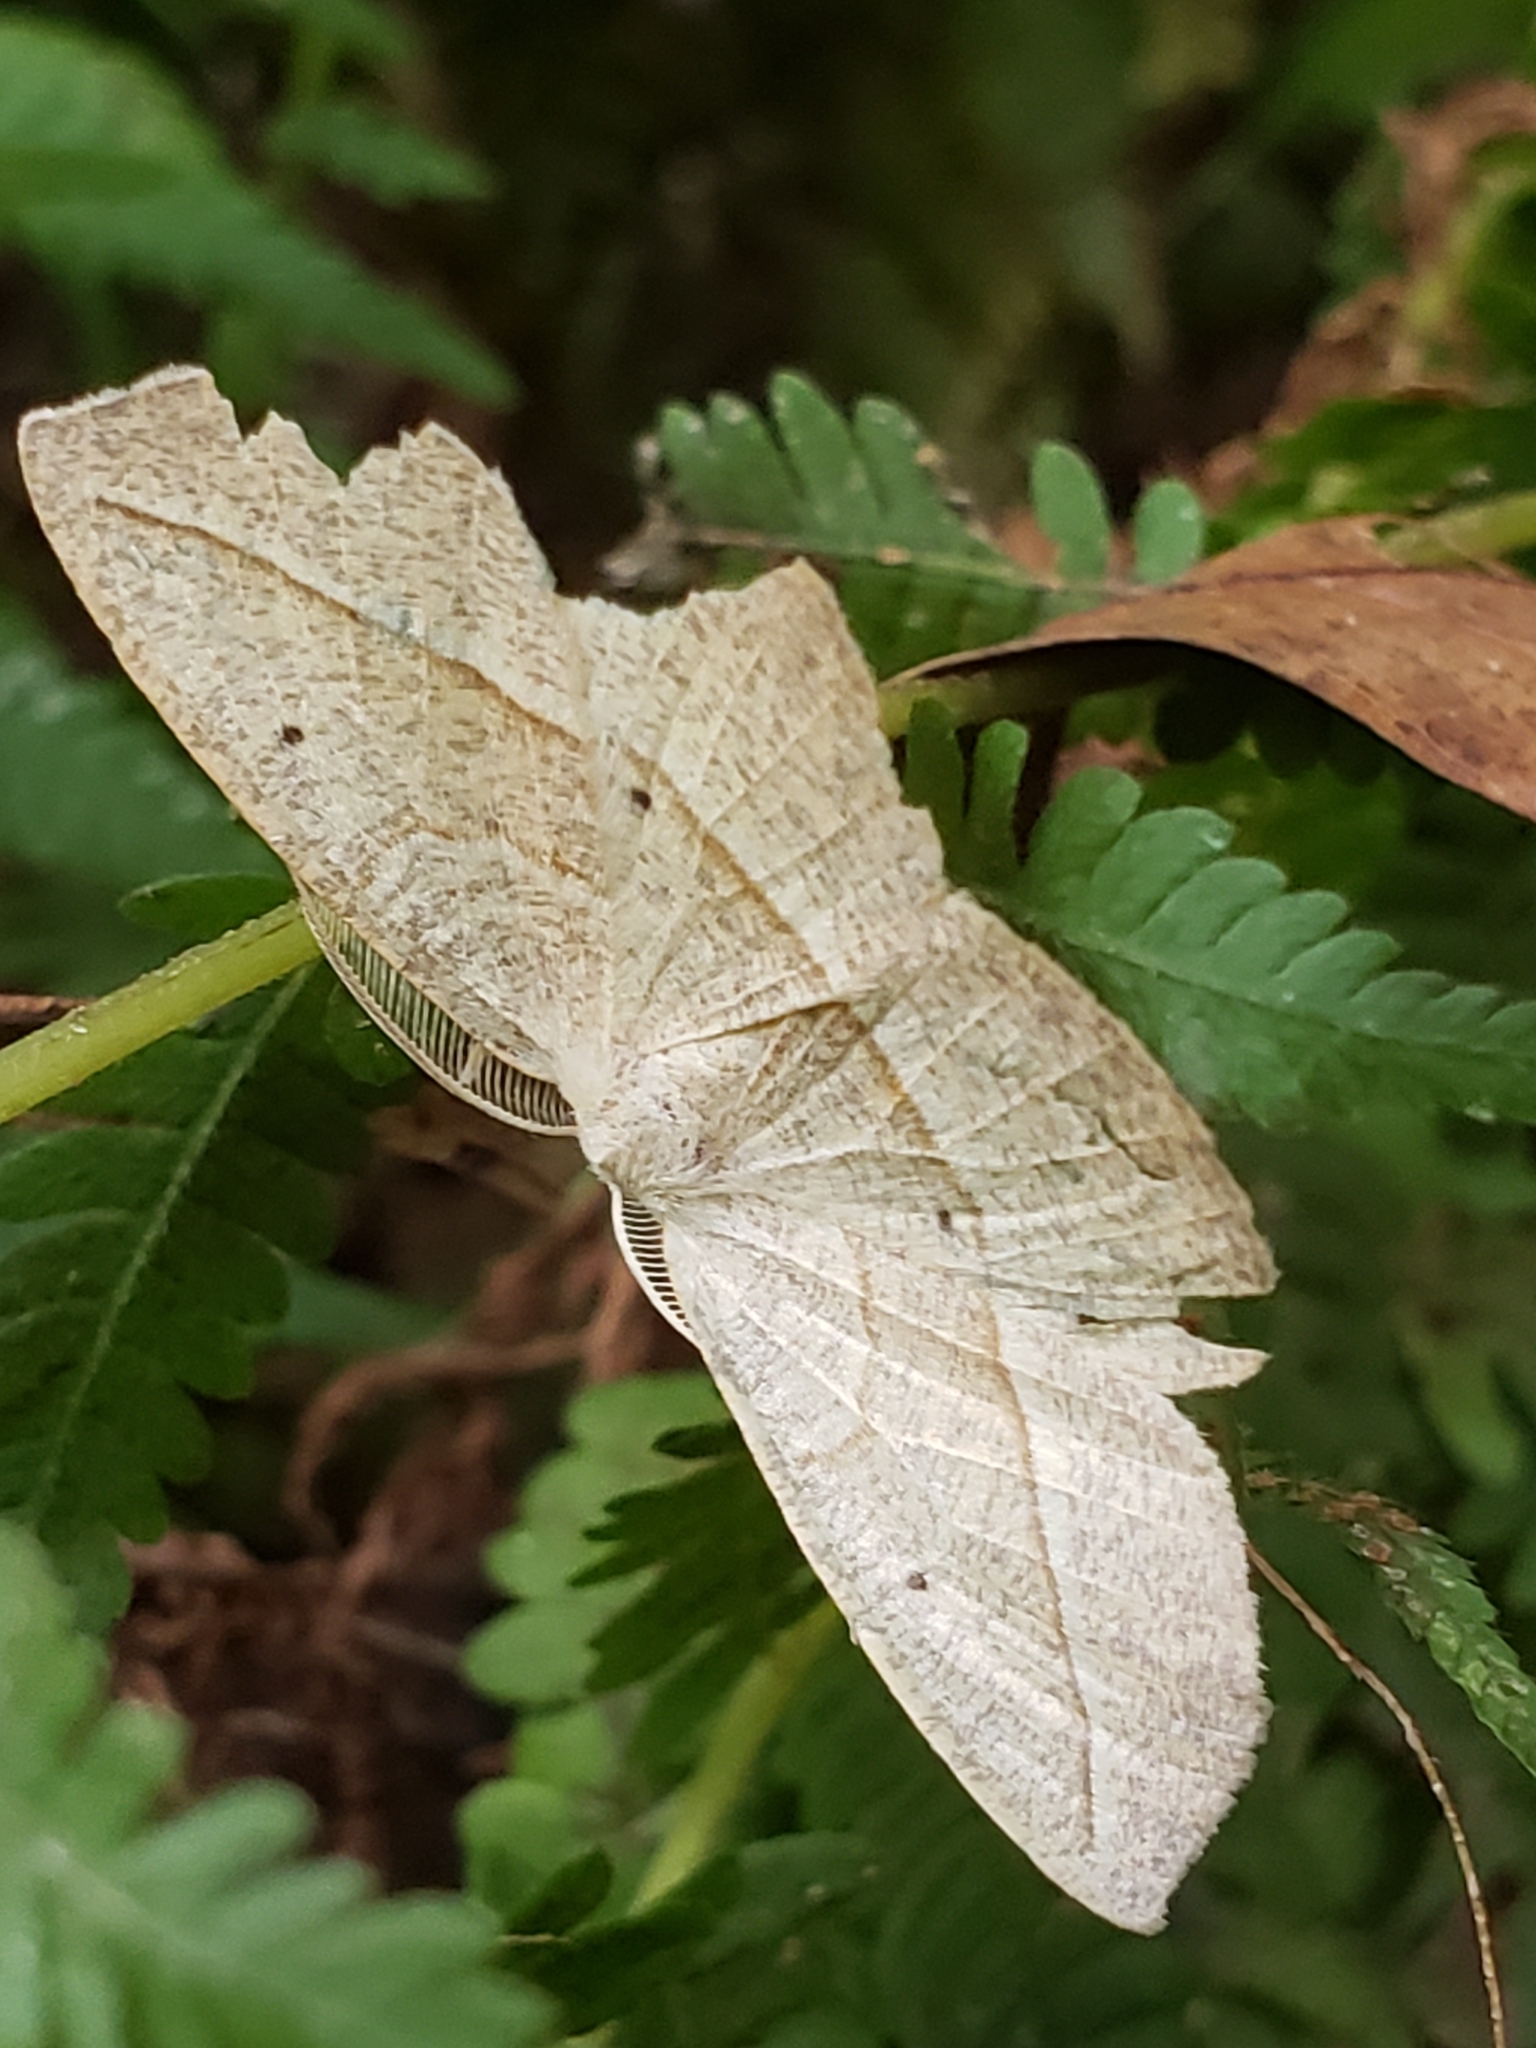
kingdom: Animalia
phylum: Arthropoda
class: Insecta
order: Lepidoptera
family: Geometridae
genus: Eusarca
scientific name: Eusarca confusaria
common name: Confused eusarca
